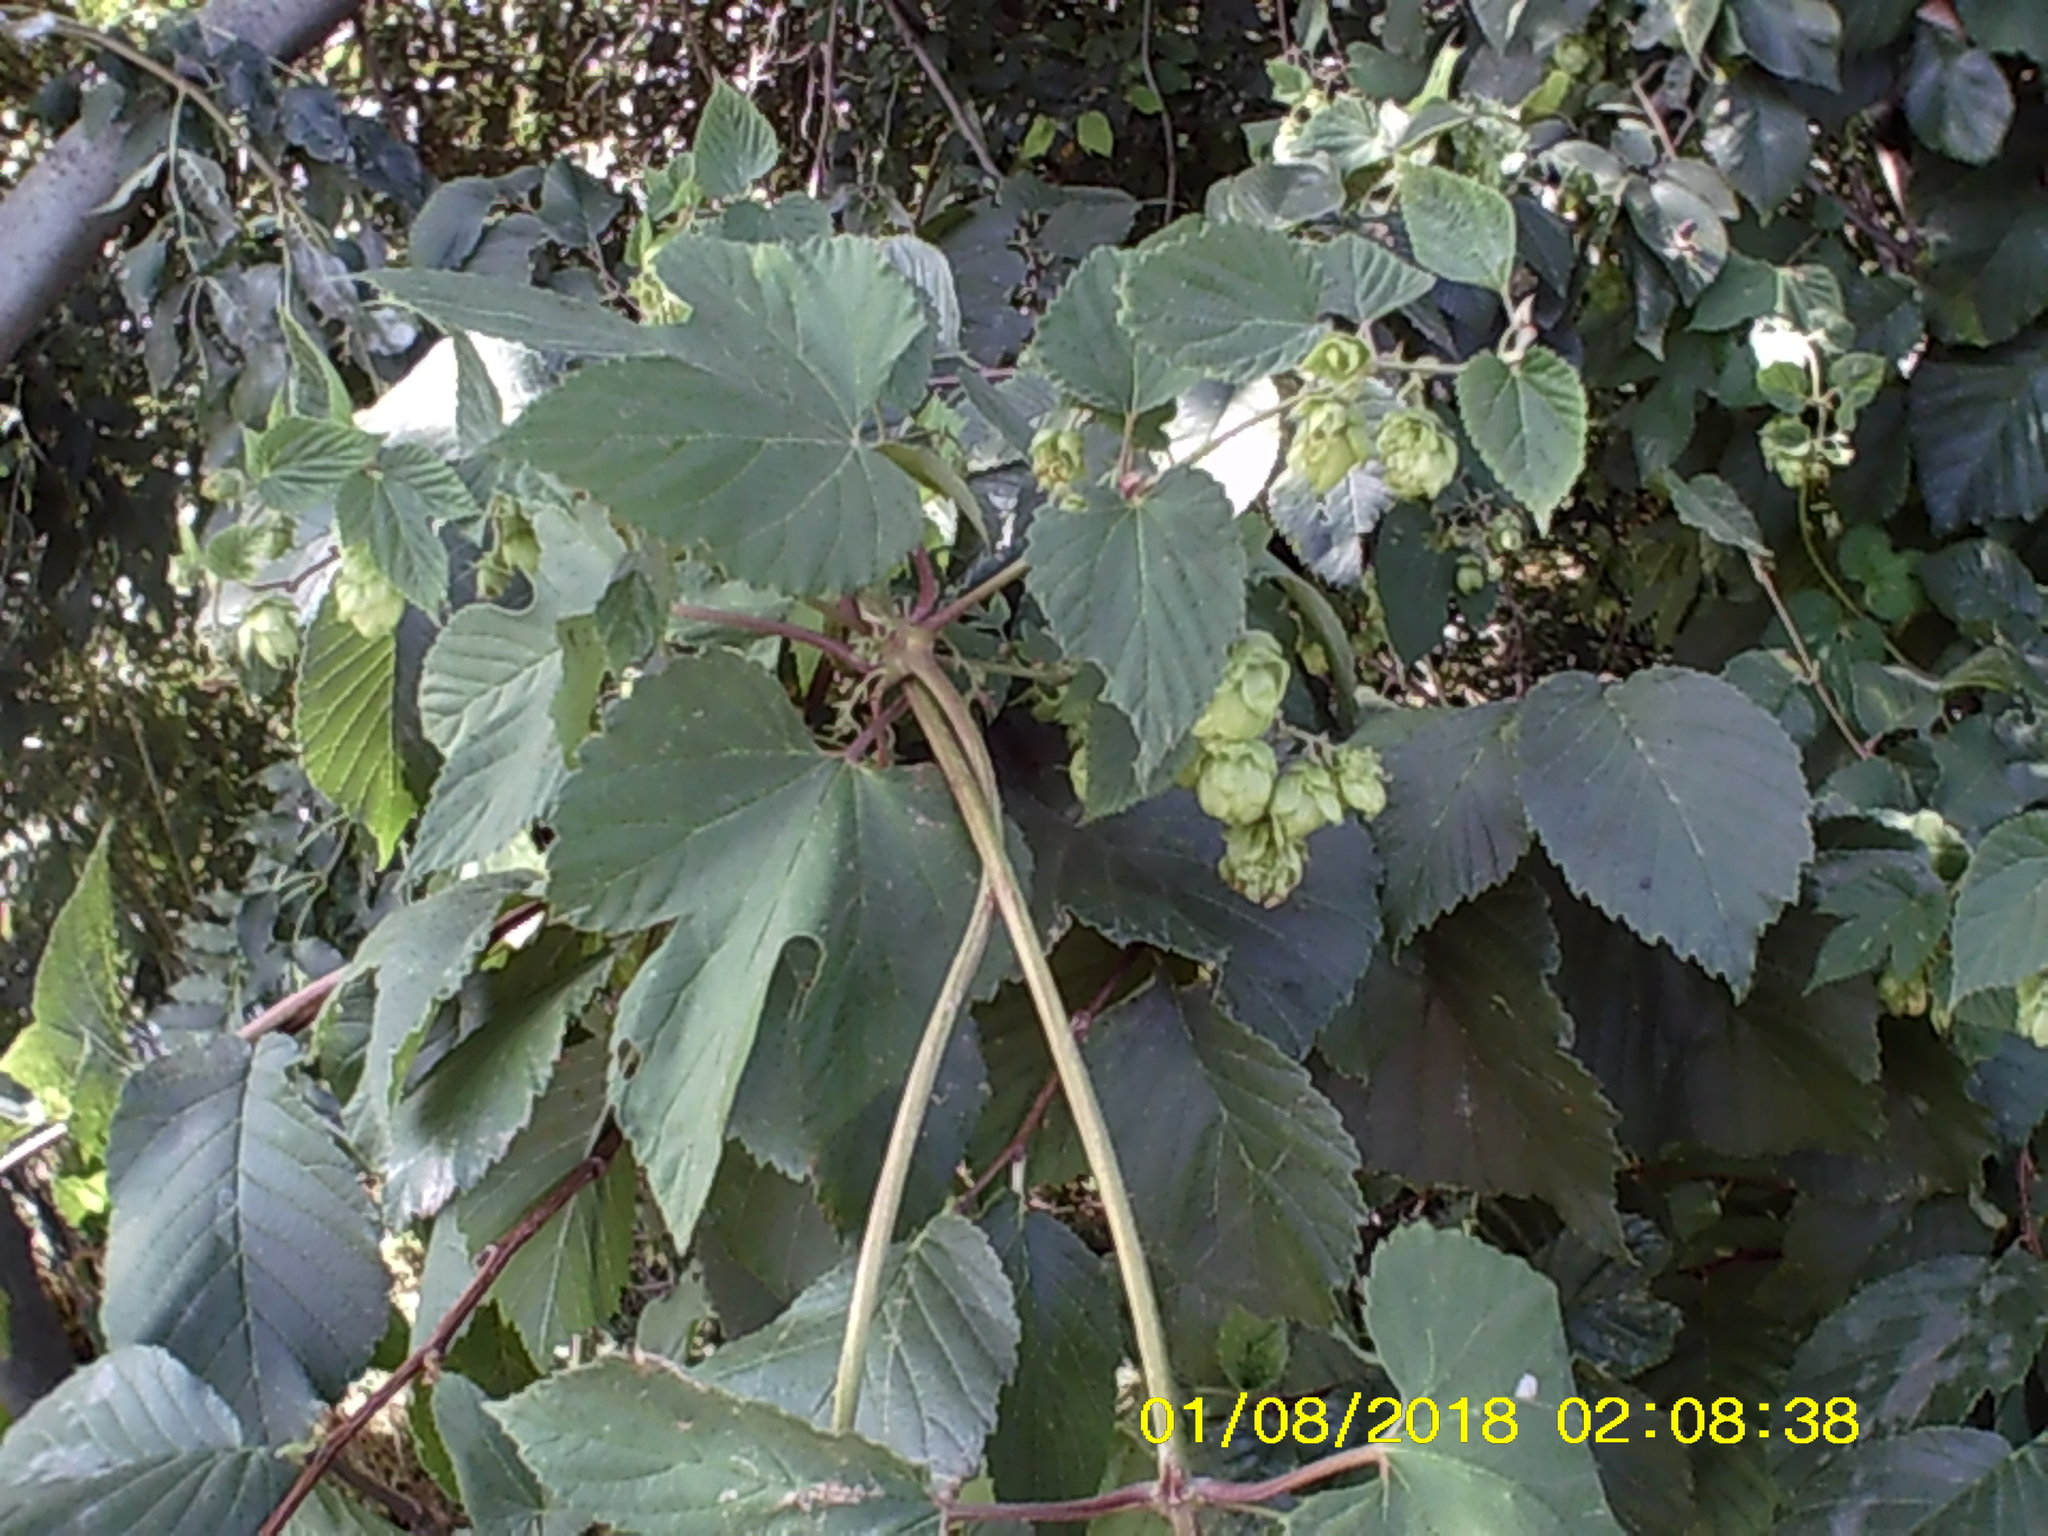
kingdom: Plantae
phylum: Tracheophyta
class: Magnoliopsida
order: Rosales
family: Cannabaceae
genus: Humulus
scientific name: Humulus lupulus
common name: Hop
